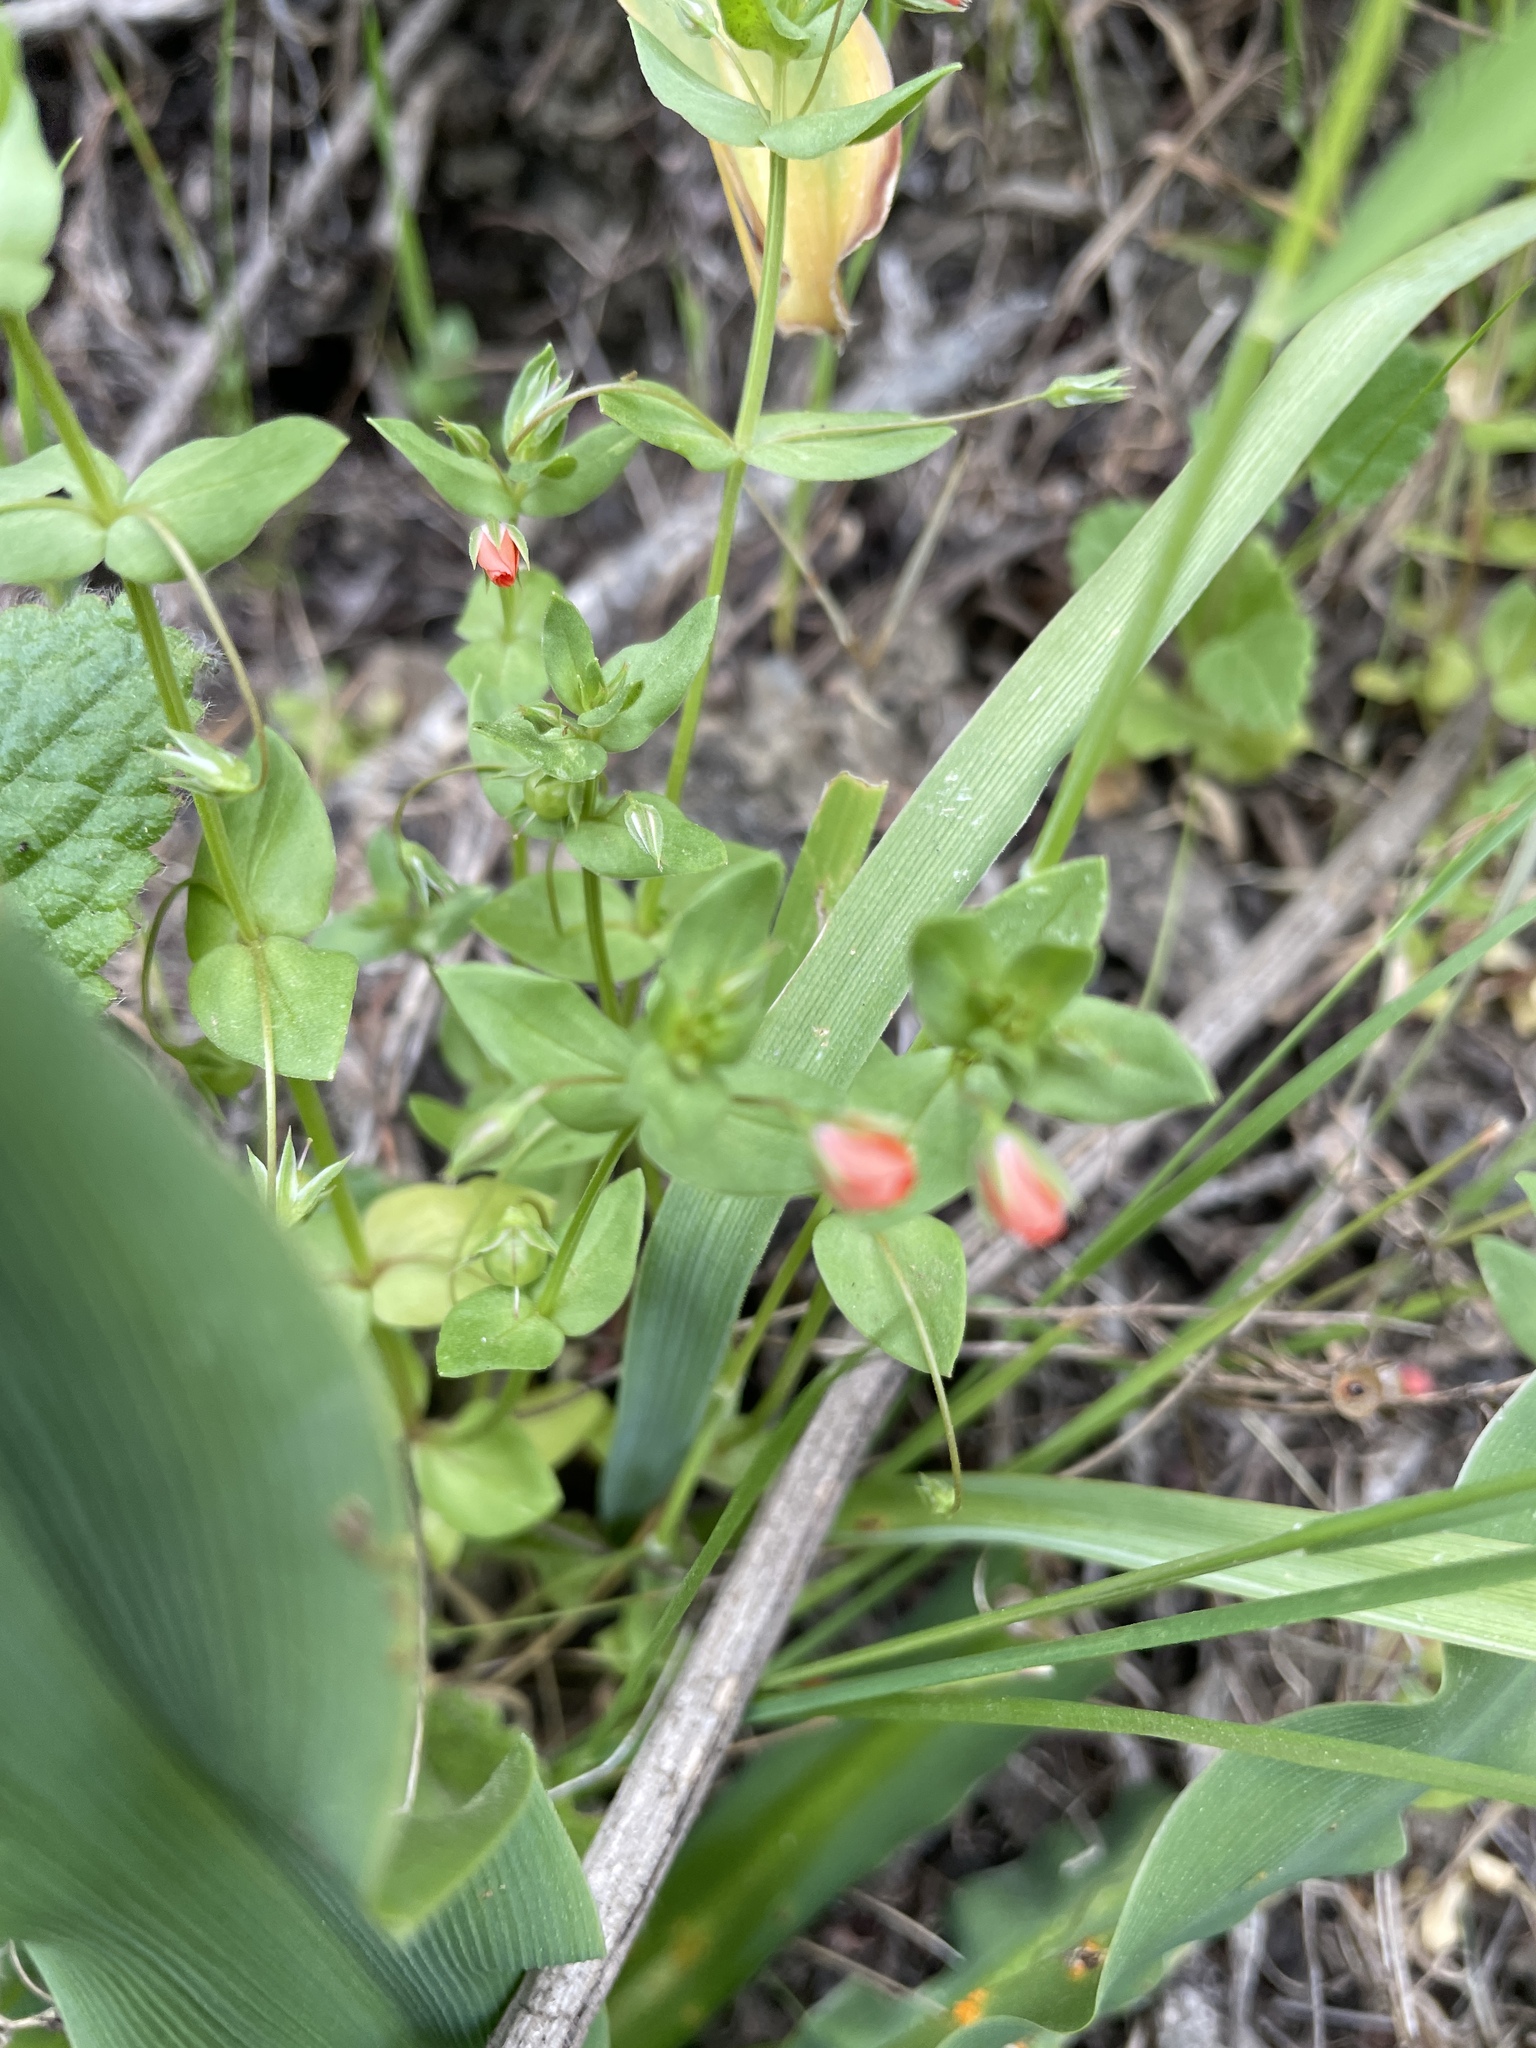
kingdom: Plantae
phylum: Tracheophyta
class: Magnoliopsida
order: Ericales
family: Primulaceae
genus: Lysimachia
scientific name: Lysimachia arvensis
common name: Scarlet pimpernel
